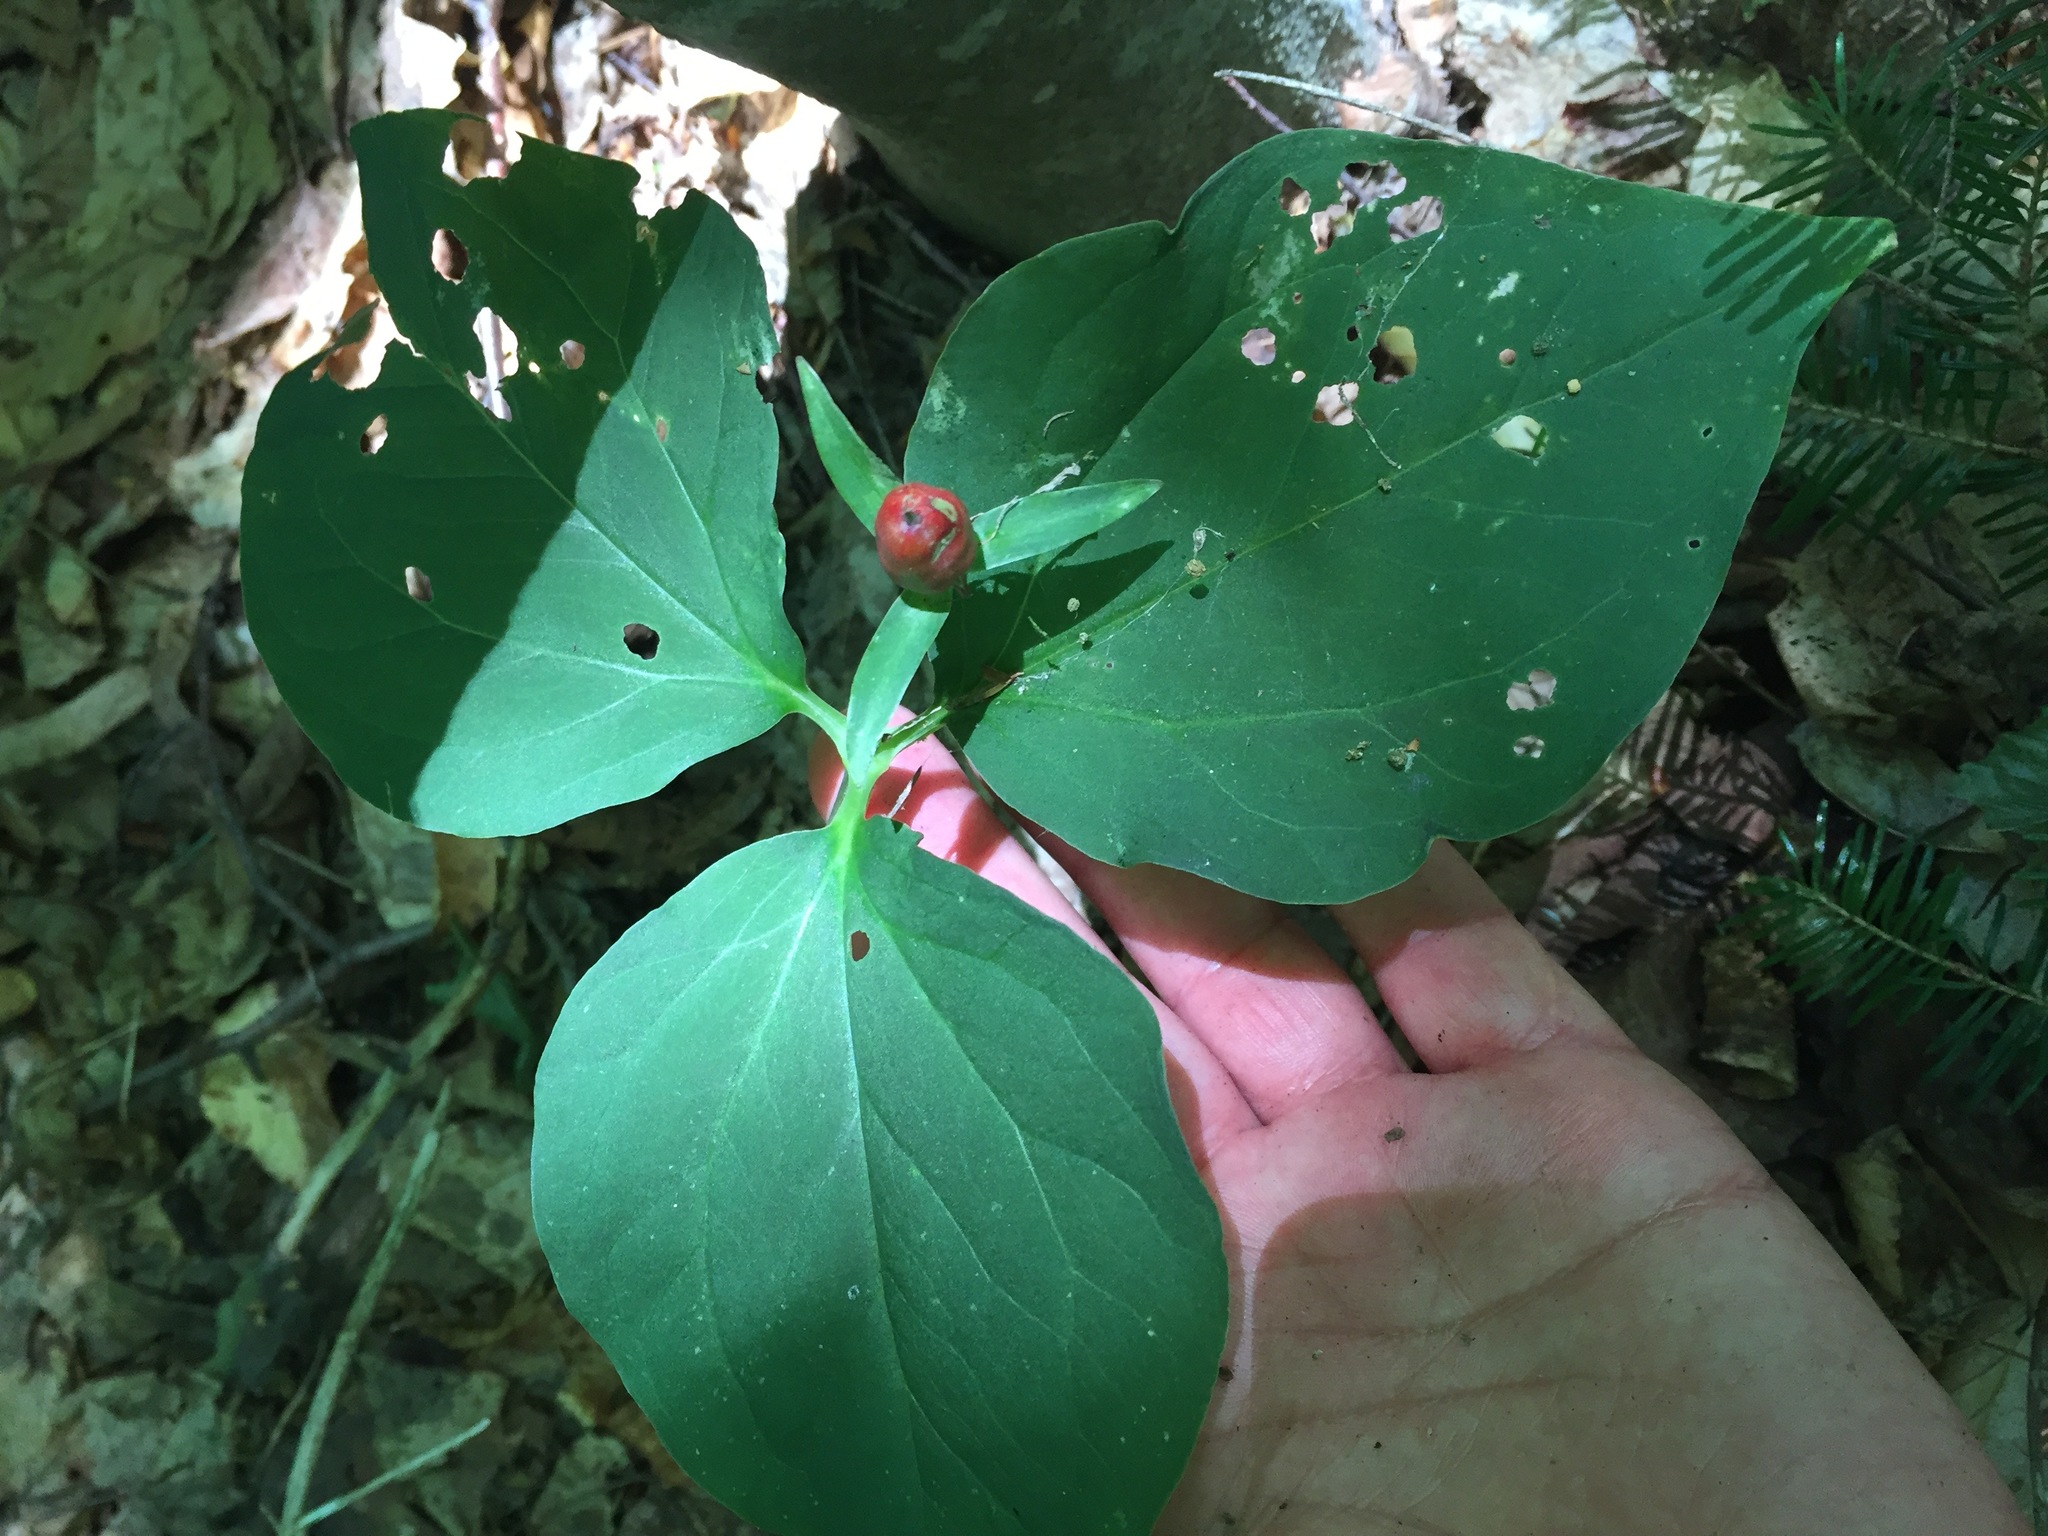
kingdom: Plantae
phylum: Tracheophyta
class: Liliopsida
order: Liliales
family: Melanthiaceae
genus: Trillium
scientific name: Trillium undulatum
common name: Paint trillium
